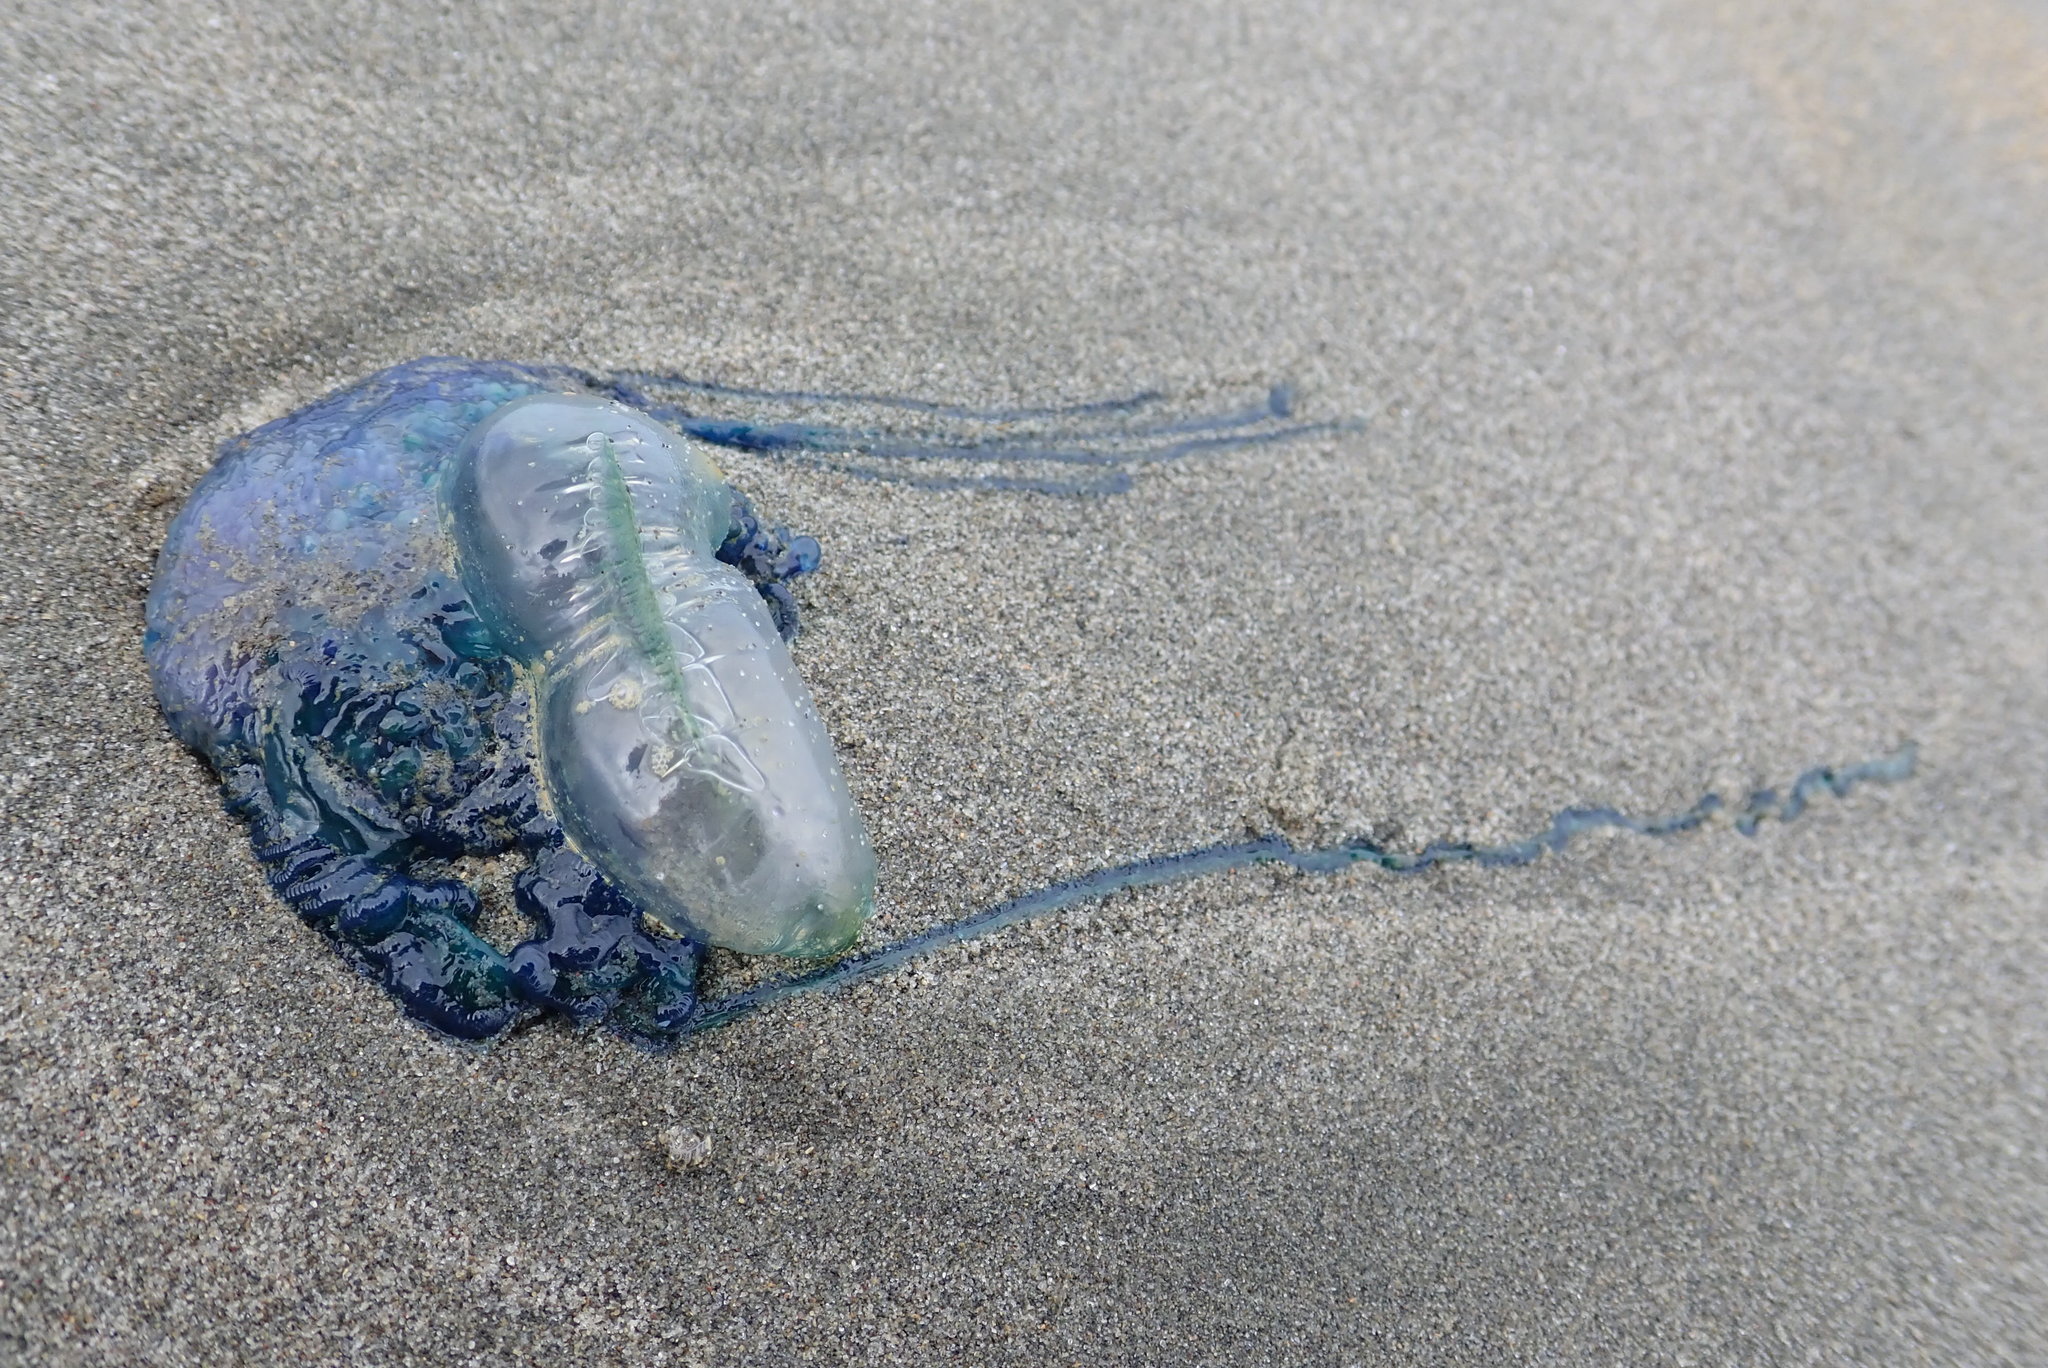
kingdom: Animalia
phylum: Cnidaria
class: Hydrozoa
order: Siphonophorae
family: Physaliidae
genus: Physalia
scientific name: Physalia physalis
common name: Portuguese man-of-war
